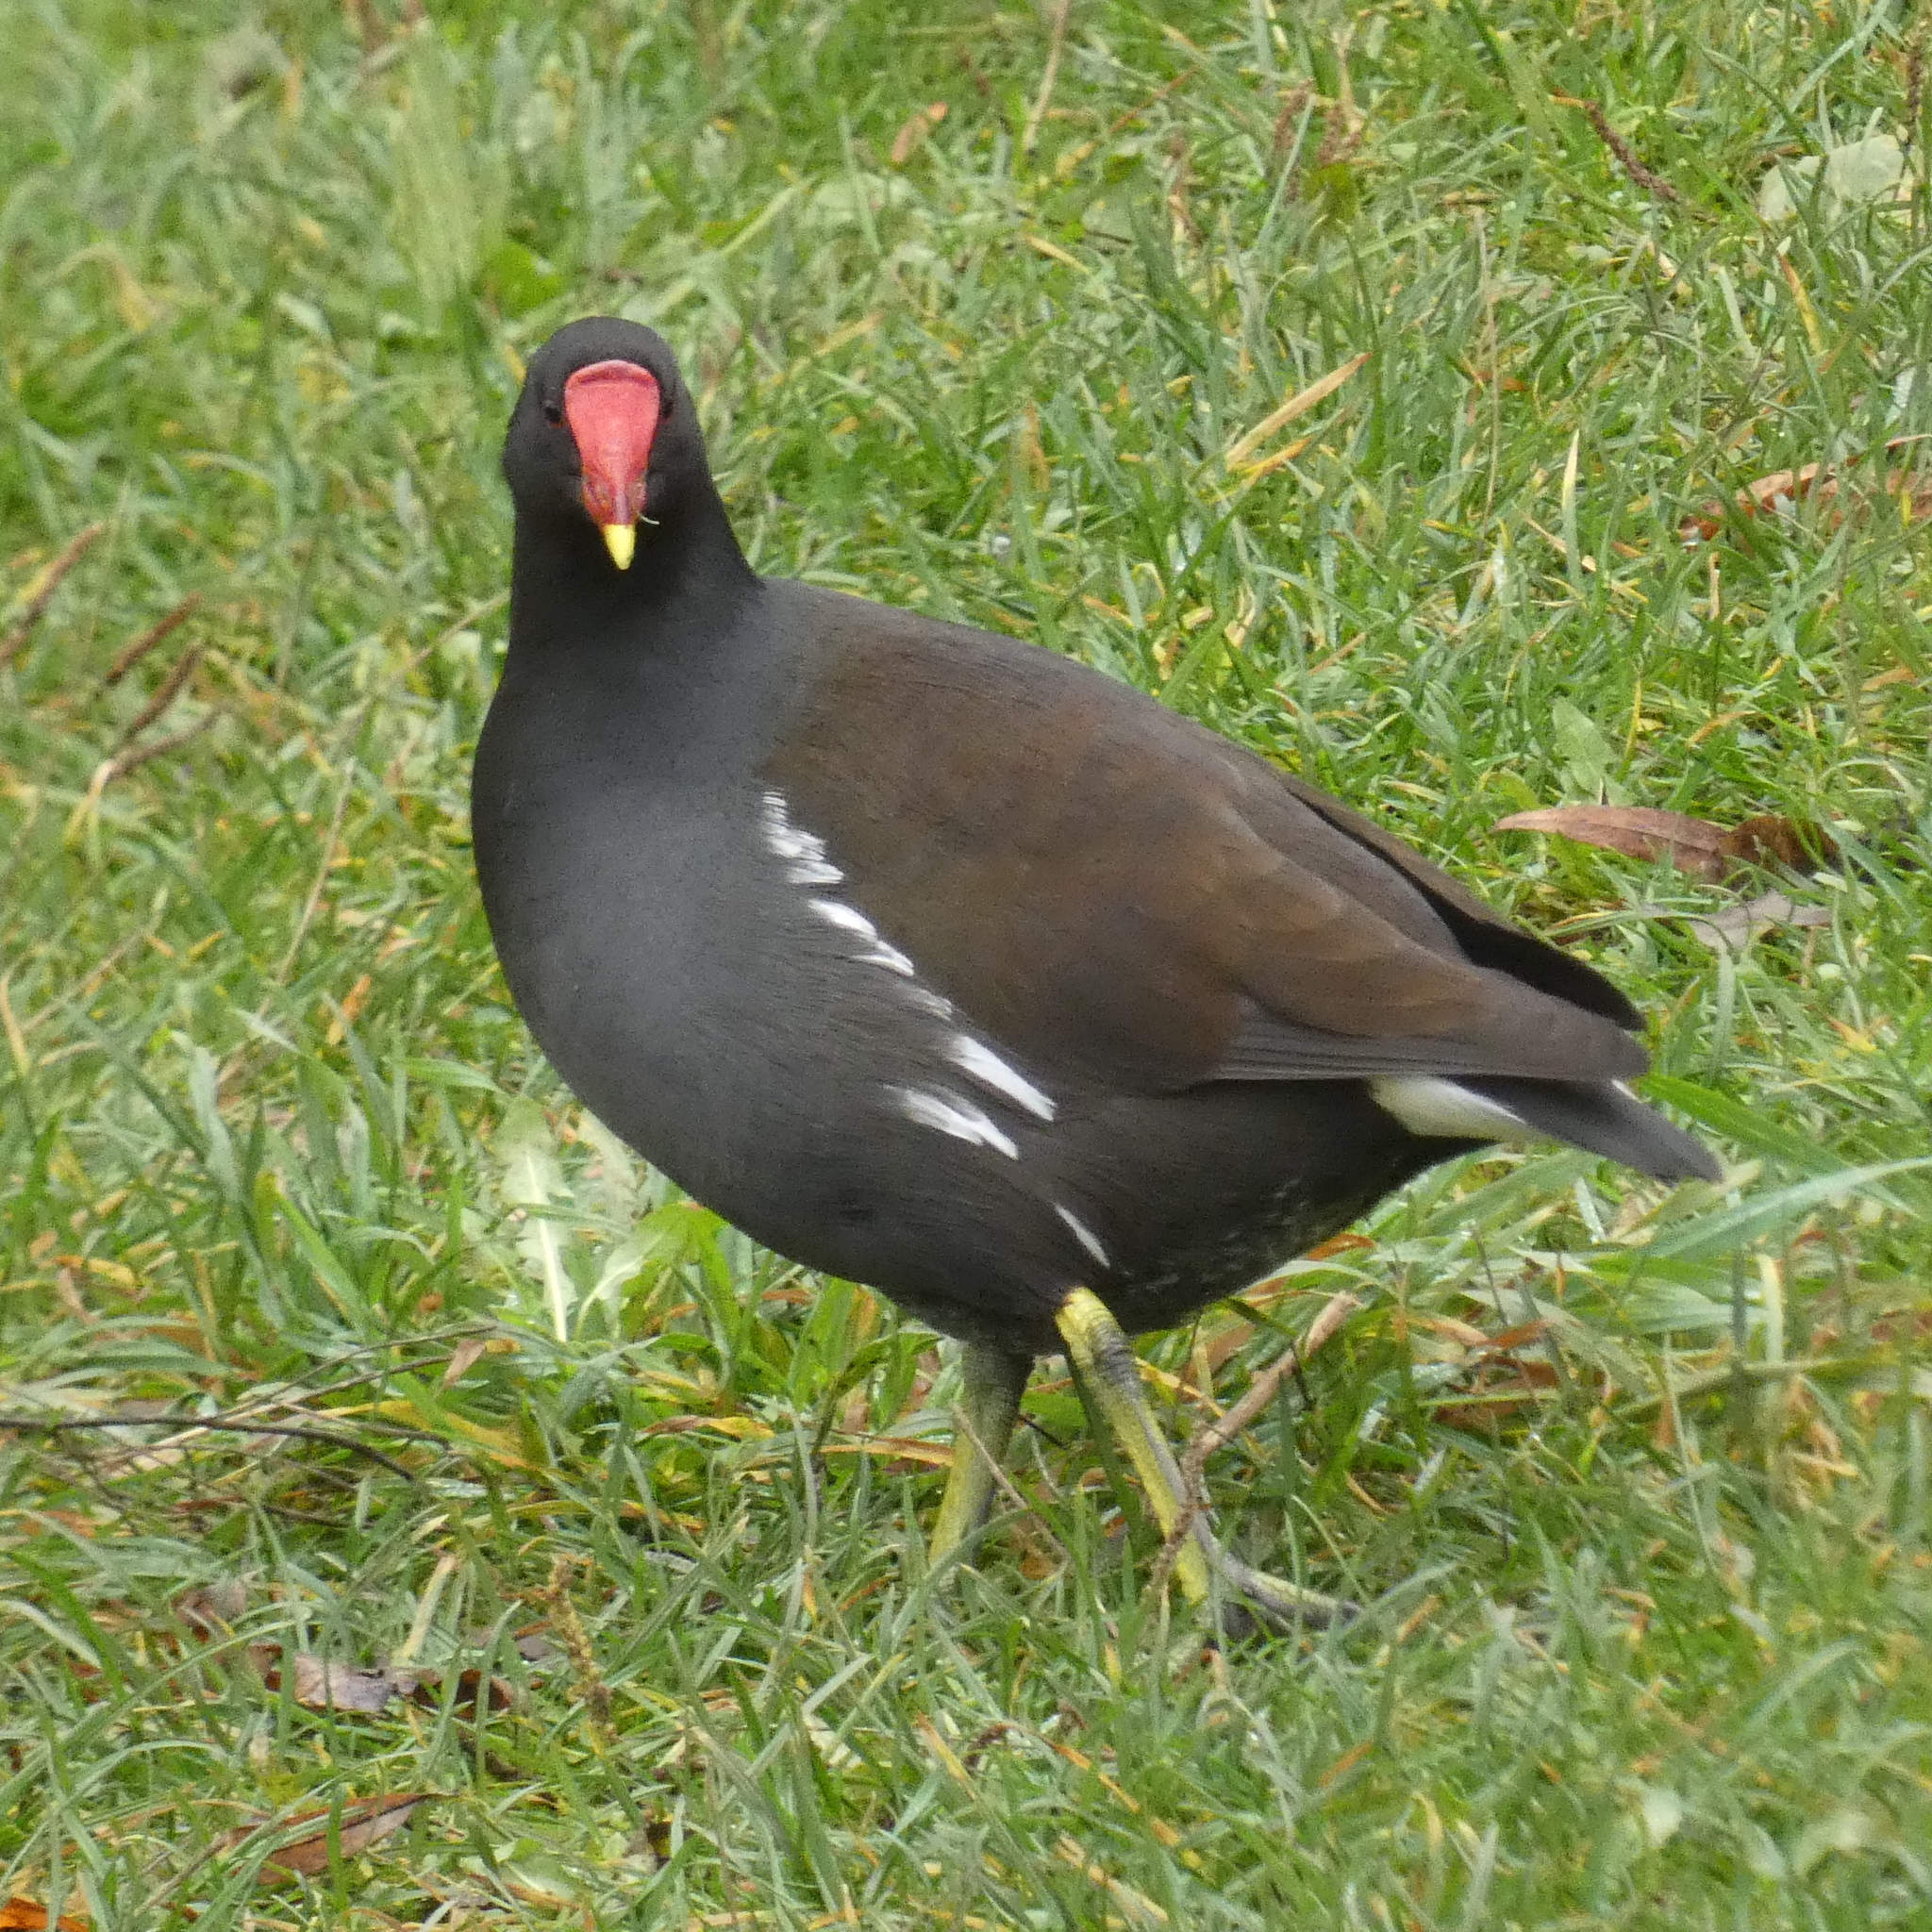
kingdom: Animalia
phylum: Chordata
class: Aves
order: Gruiformes
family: Rallidae
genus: Gallinula
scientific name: Gallinula chloropus
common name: Common moorhen
